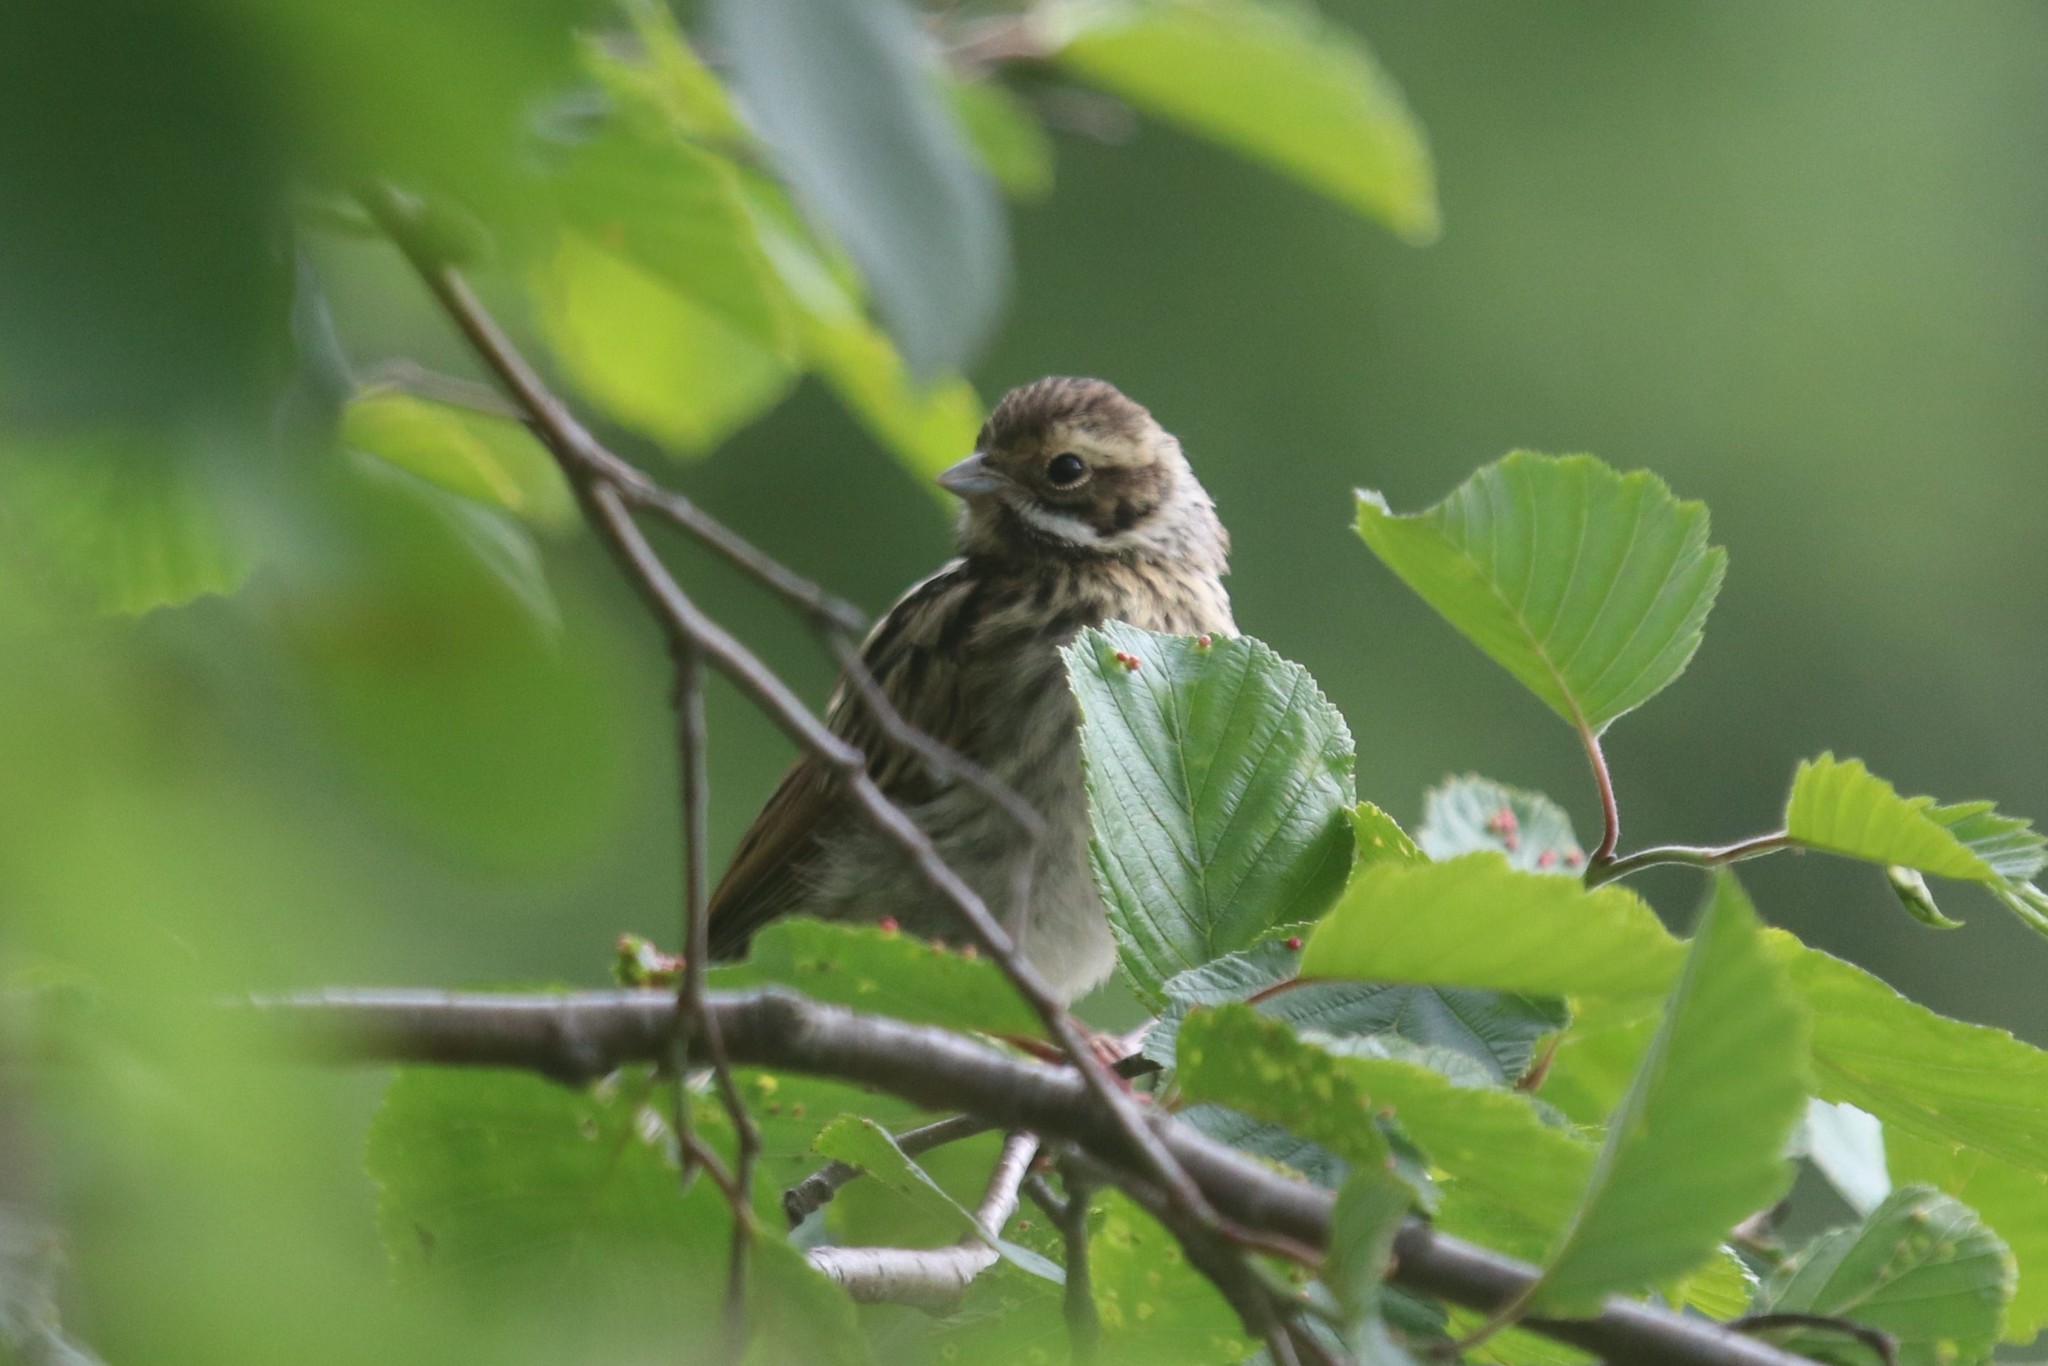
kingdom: Animalia
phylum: Chordata
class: Aves
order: Passeriformes
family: Emberizidae
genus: Emberiza
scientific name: Emberiza schoeniclus
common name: Reed bunting
